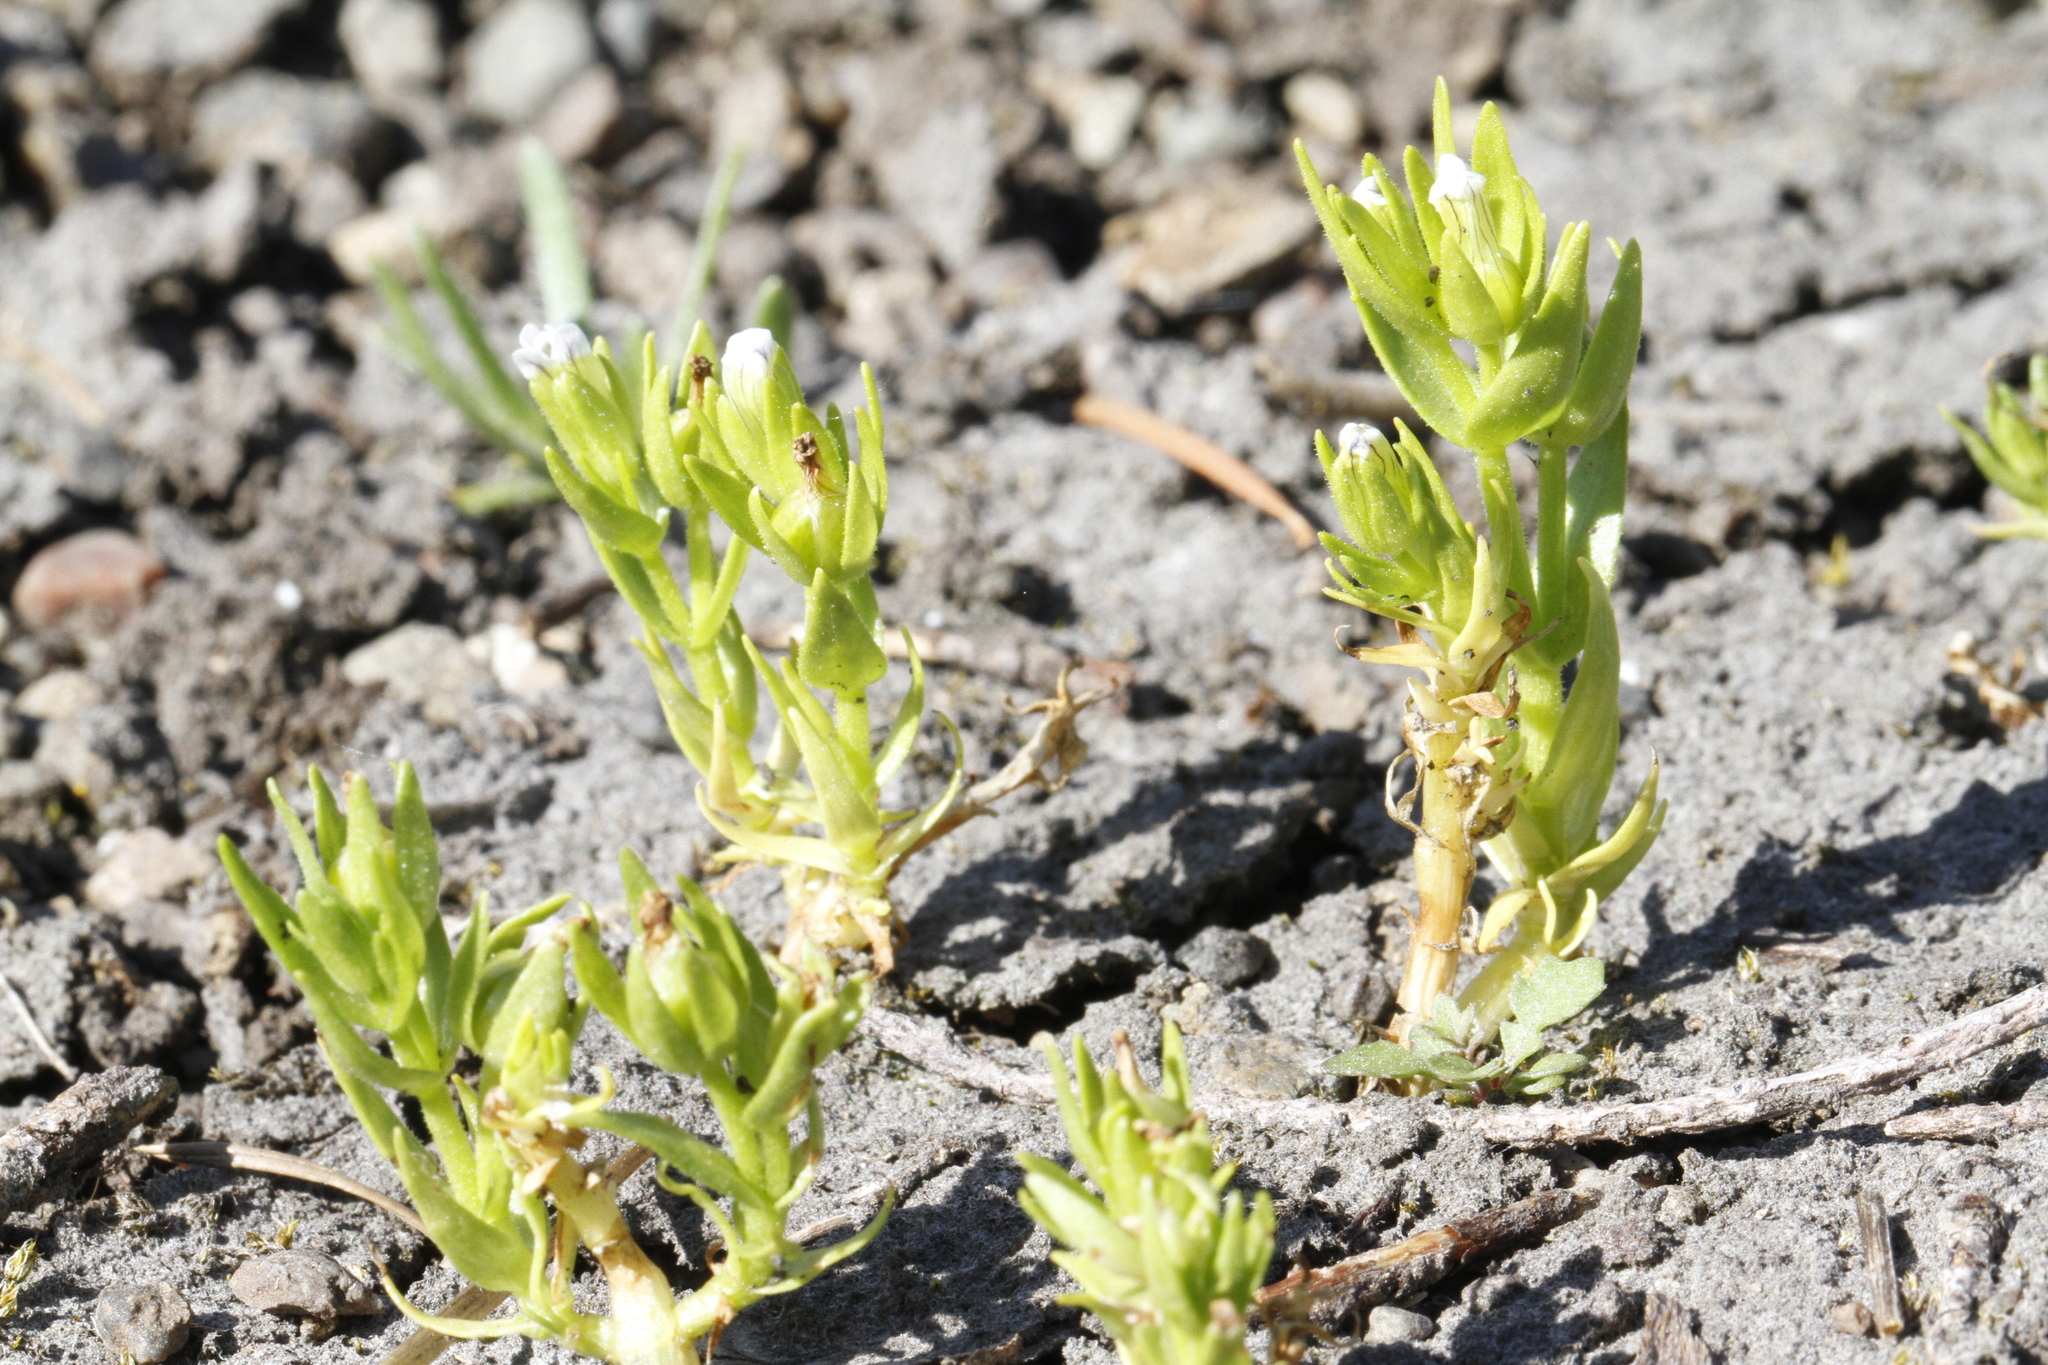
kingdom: Plantae
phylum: Tracheophyta
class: Magnoliopsida
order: Lamiales
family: Plantaginaceae
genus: Gratiola
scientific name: Gratiola ebracteata
